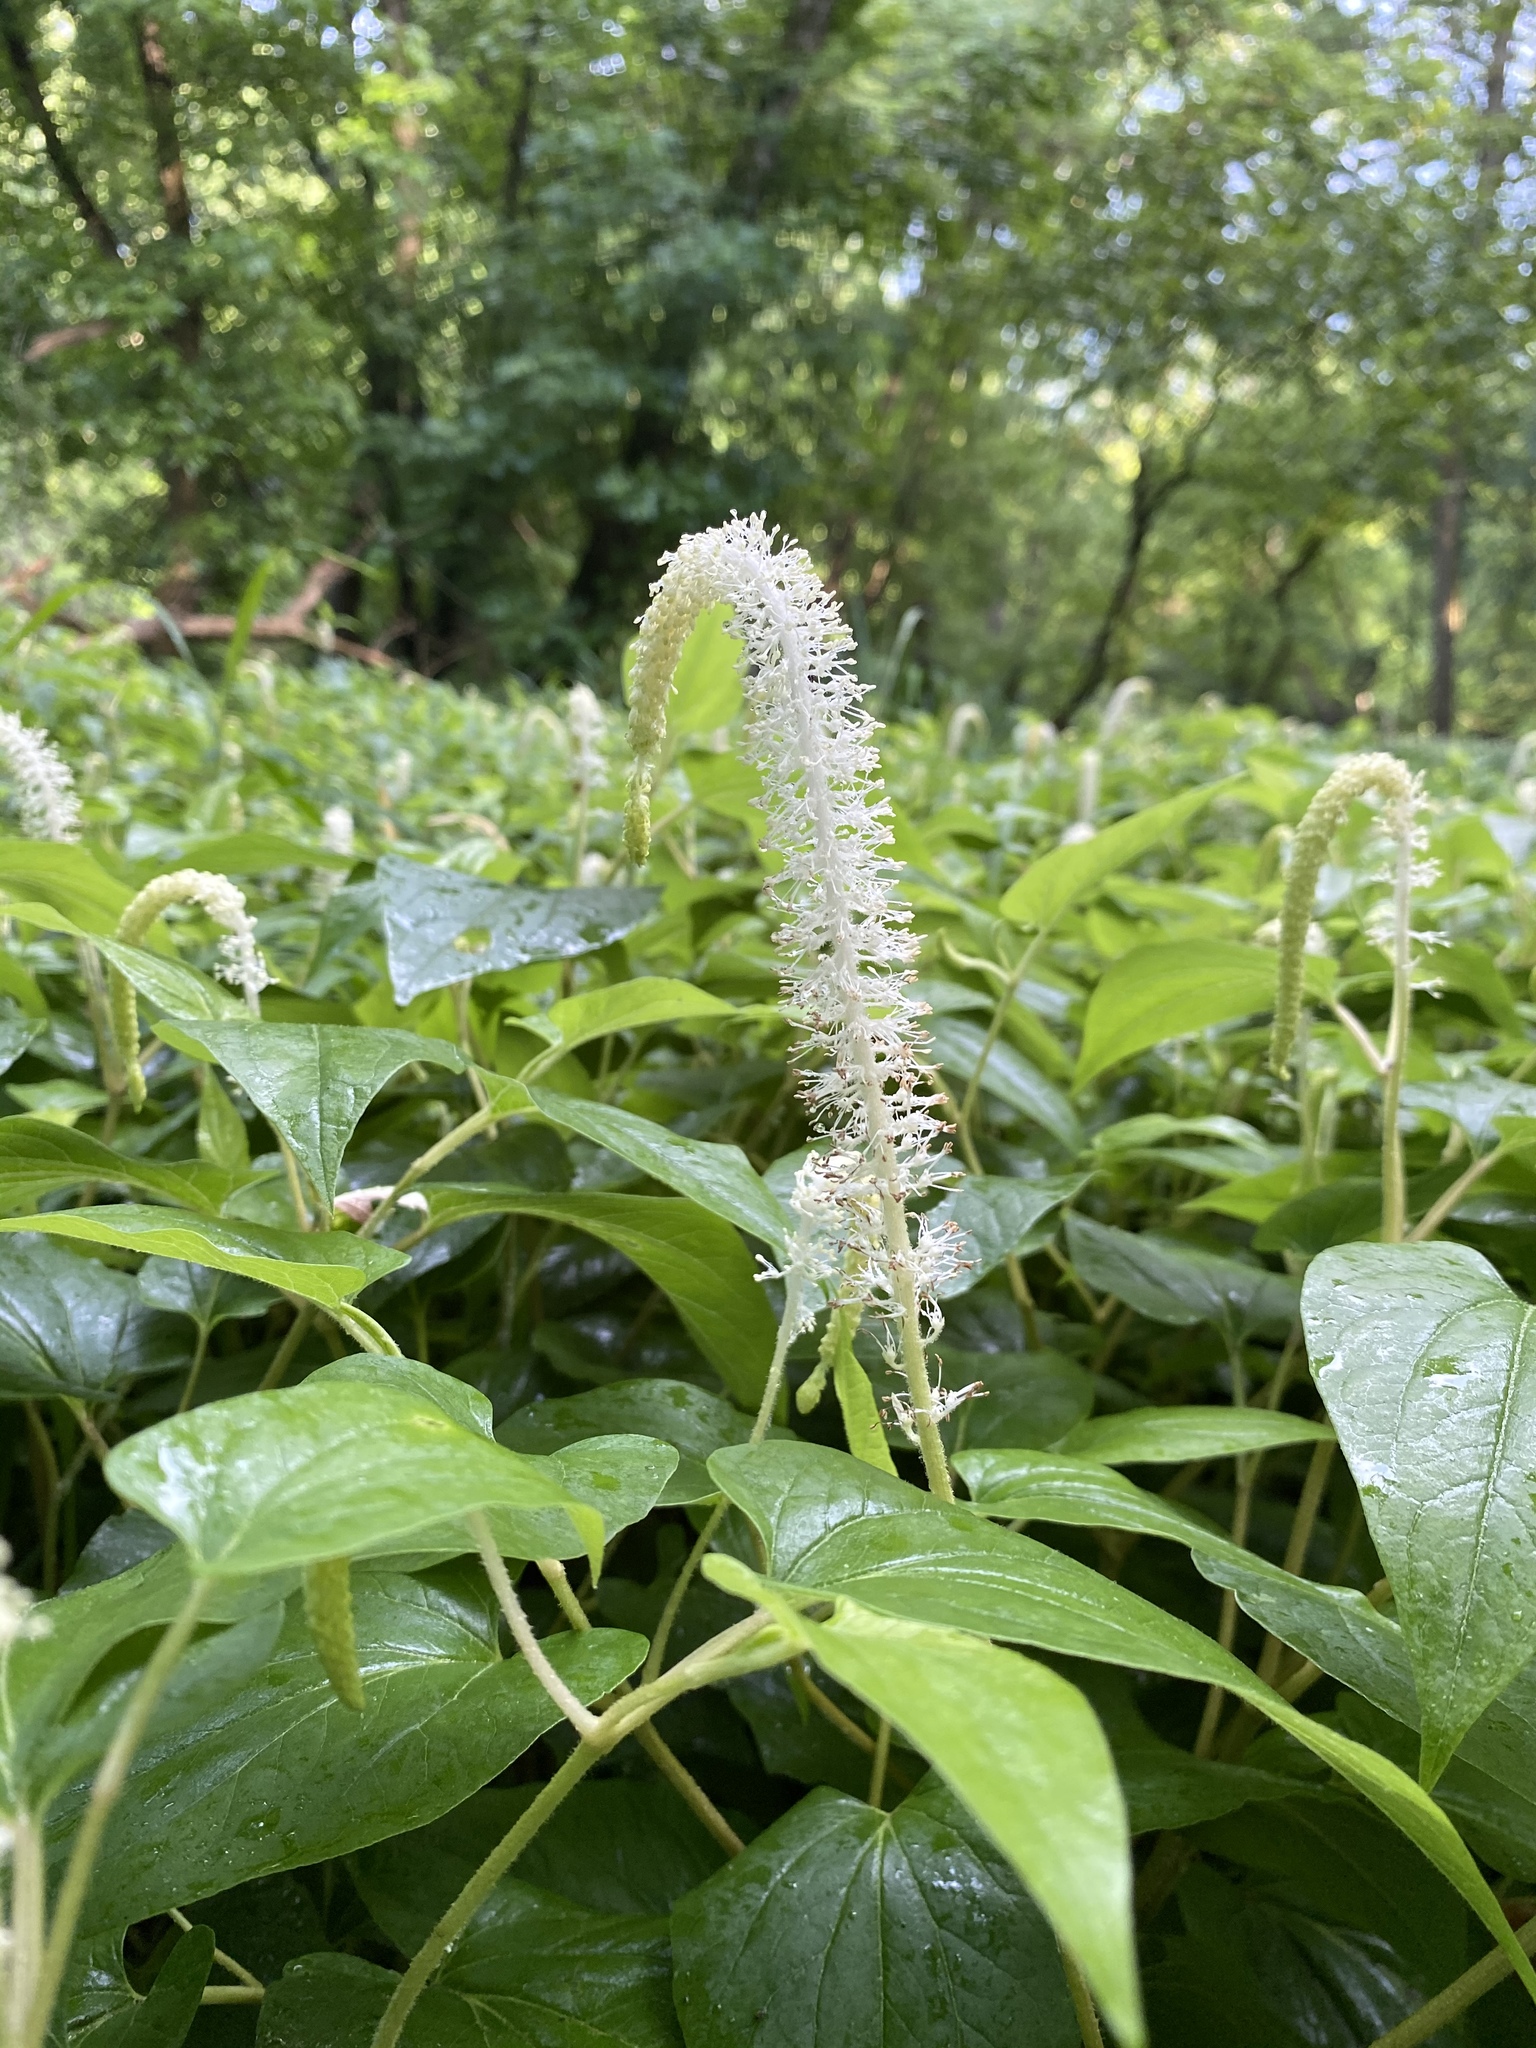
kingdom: Plantae
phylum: Tracheophyta
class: Magnoliopsida
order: Piperales
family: Saururaceae
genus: Saururus
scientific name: Saururus cernuus
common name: Lizard's-tail
